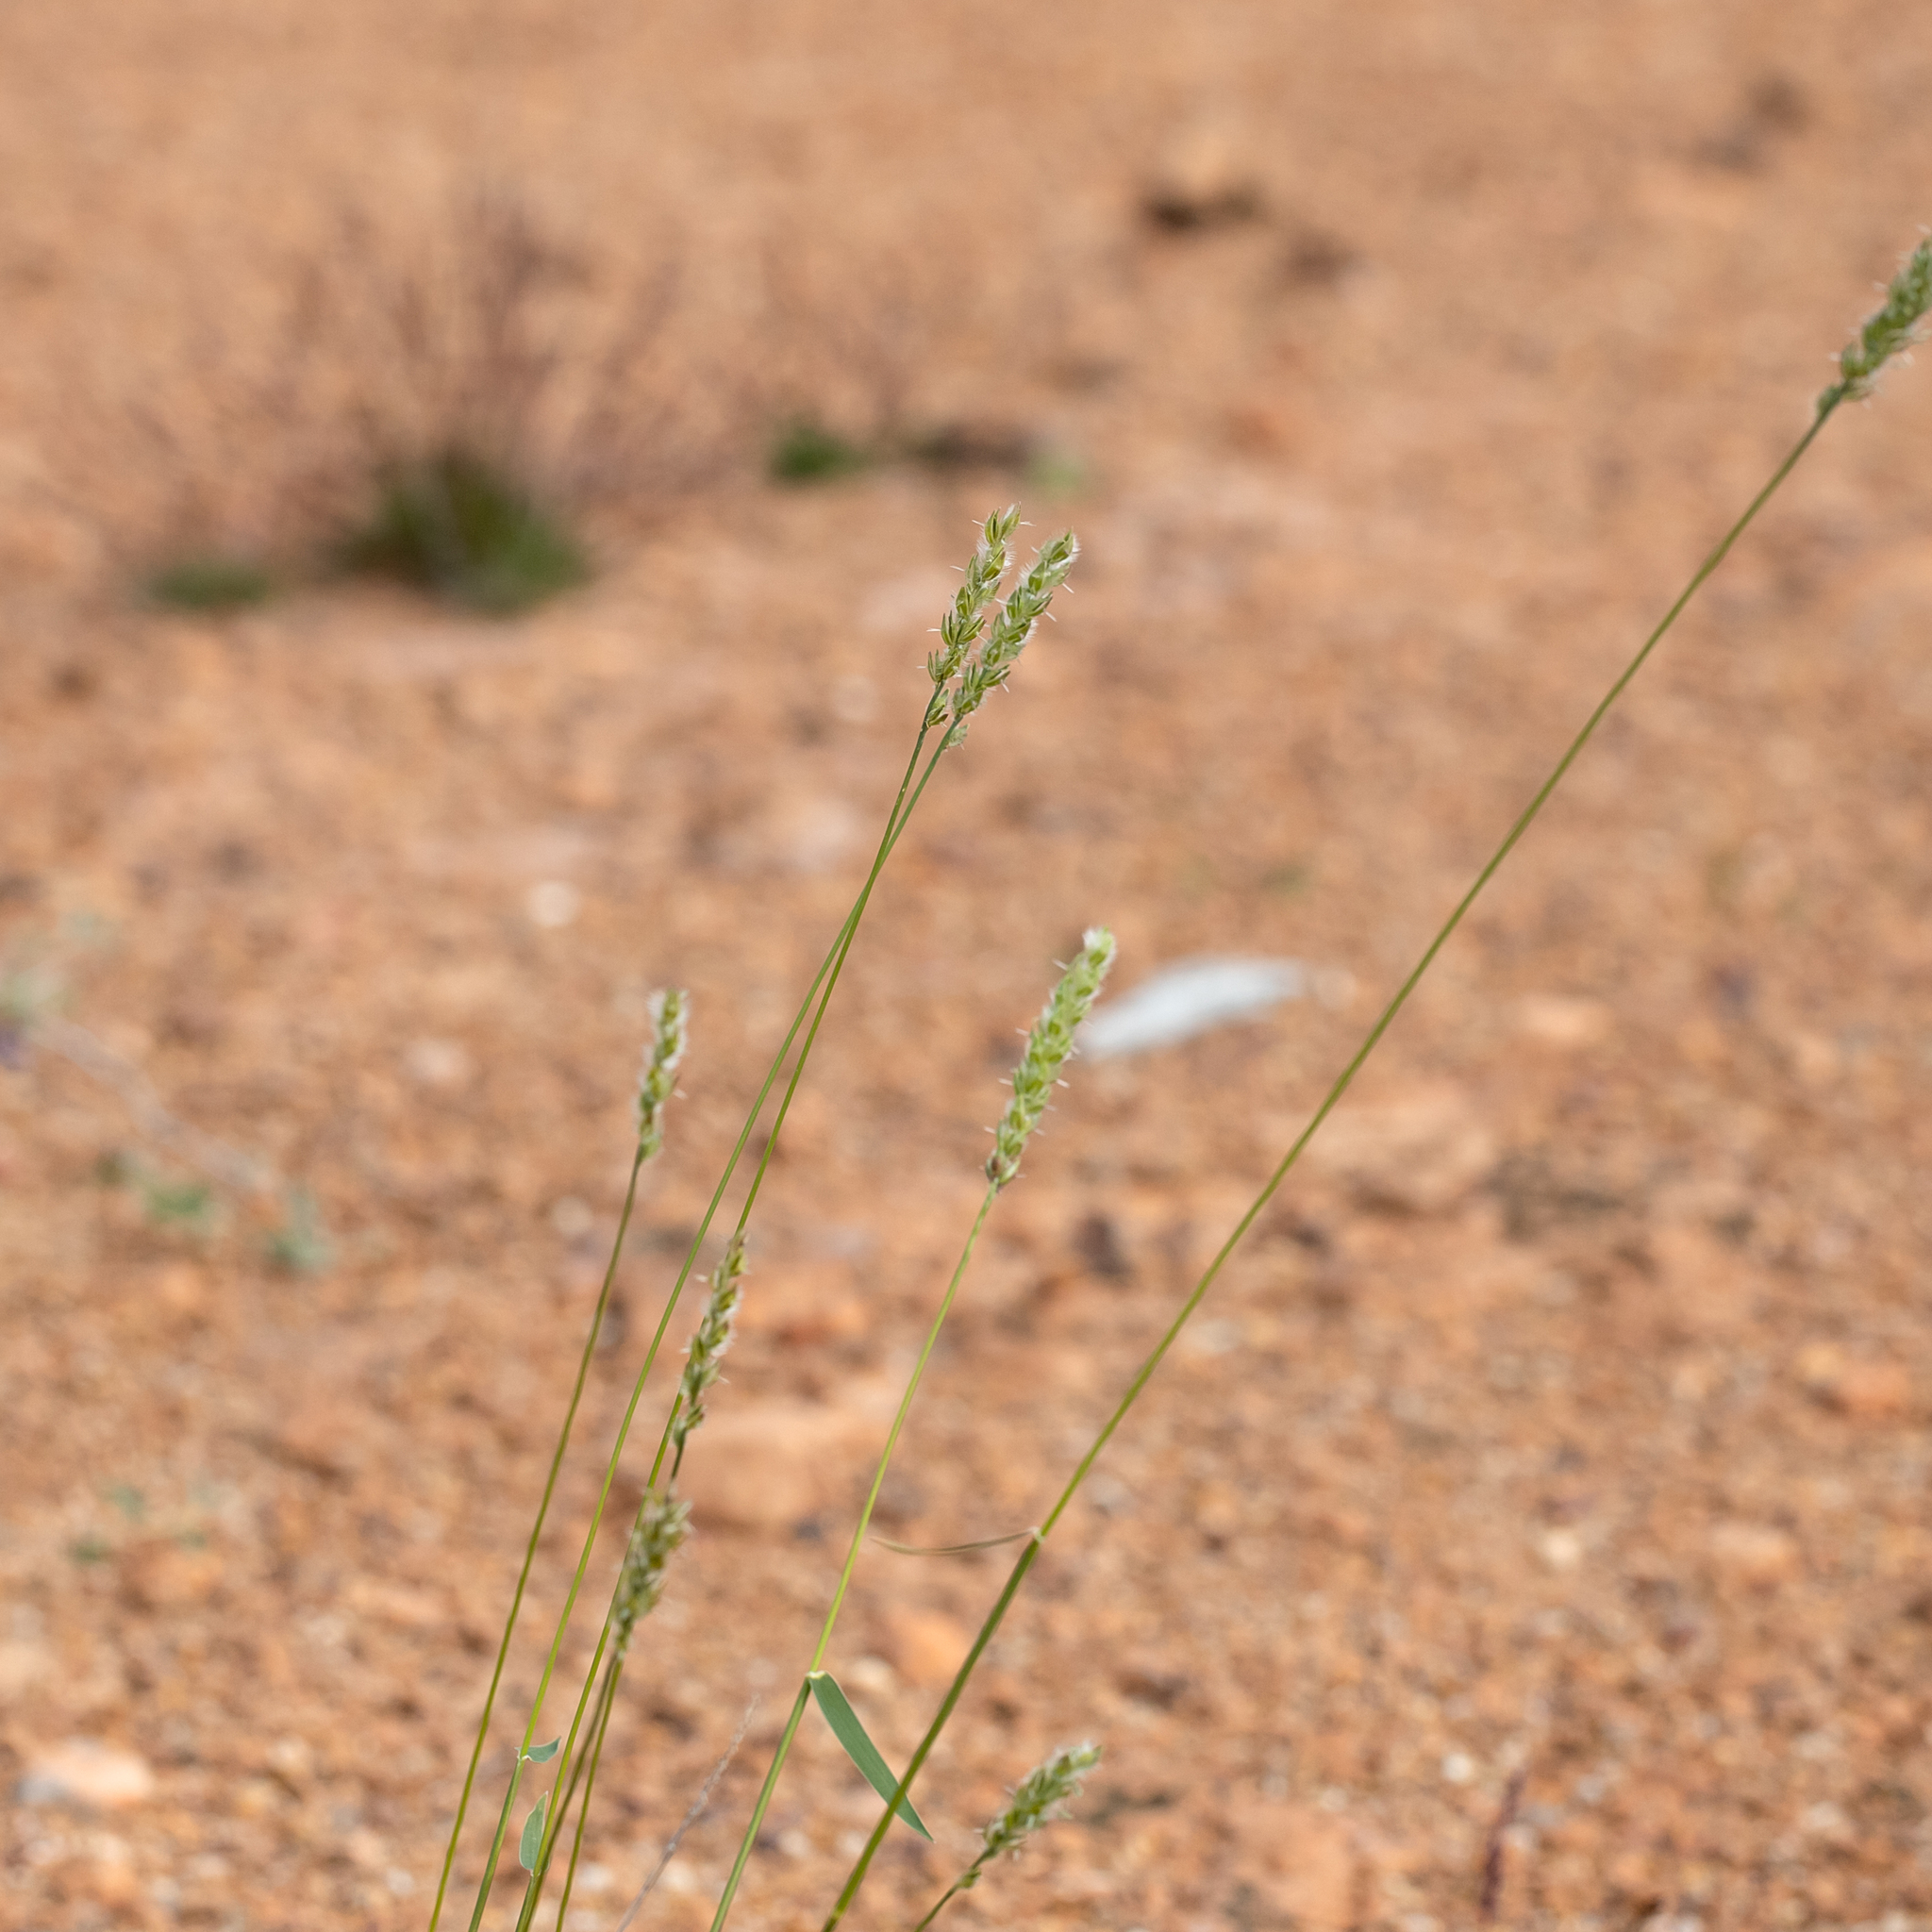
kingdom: Plantae
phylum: Tracheophyta
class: Liliopsida
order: Poales
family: Poaceae
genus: Thyridolepis
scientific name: Thyridolepis mitchelliana
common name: Rock tassel grass
